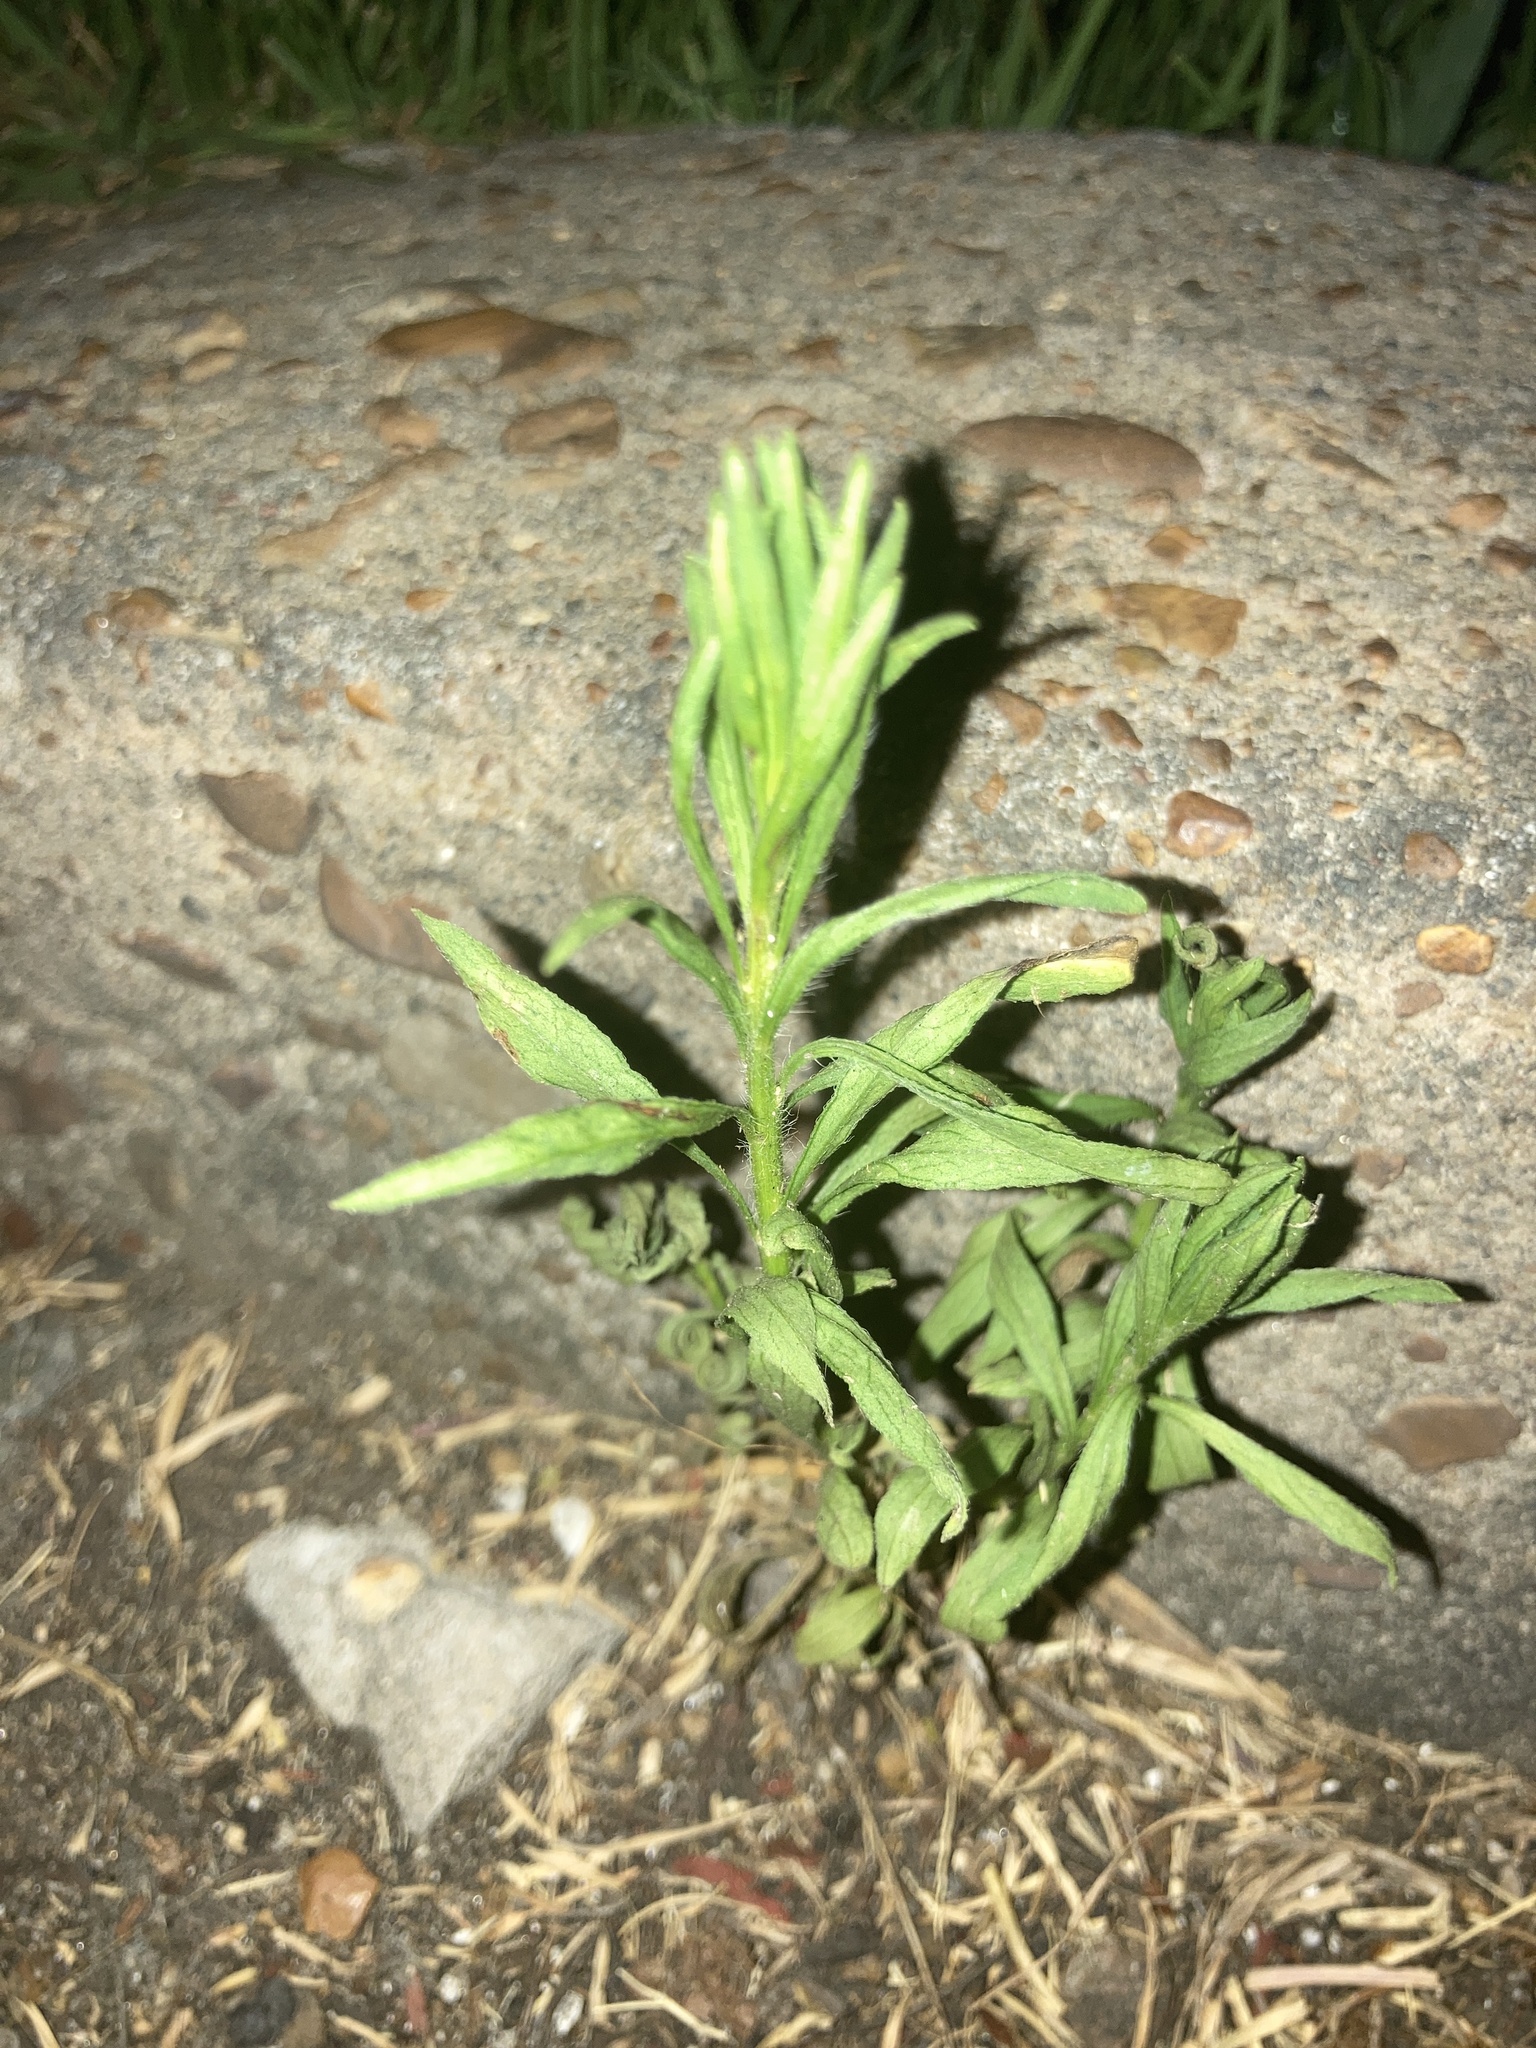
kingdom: Plantae
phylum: Tracheophyta
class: Magnoliopsida
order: Asterales
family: Asteraceae
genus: Erigeron
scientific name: Erigeron bonariensis
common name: Argentine fleabane
